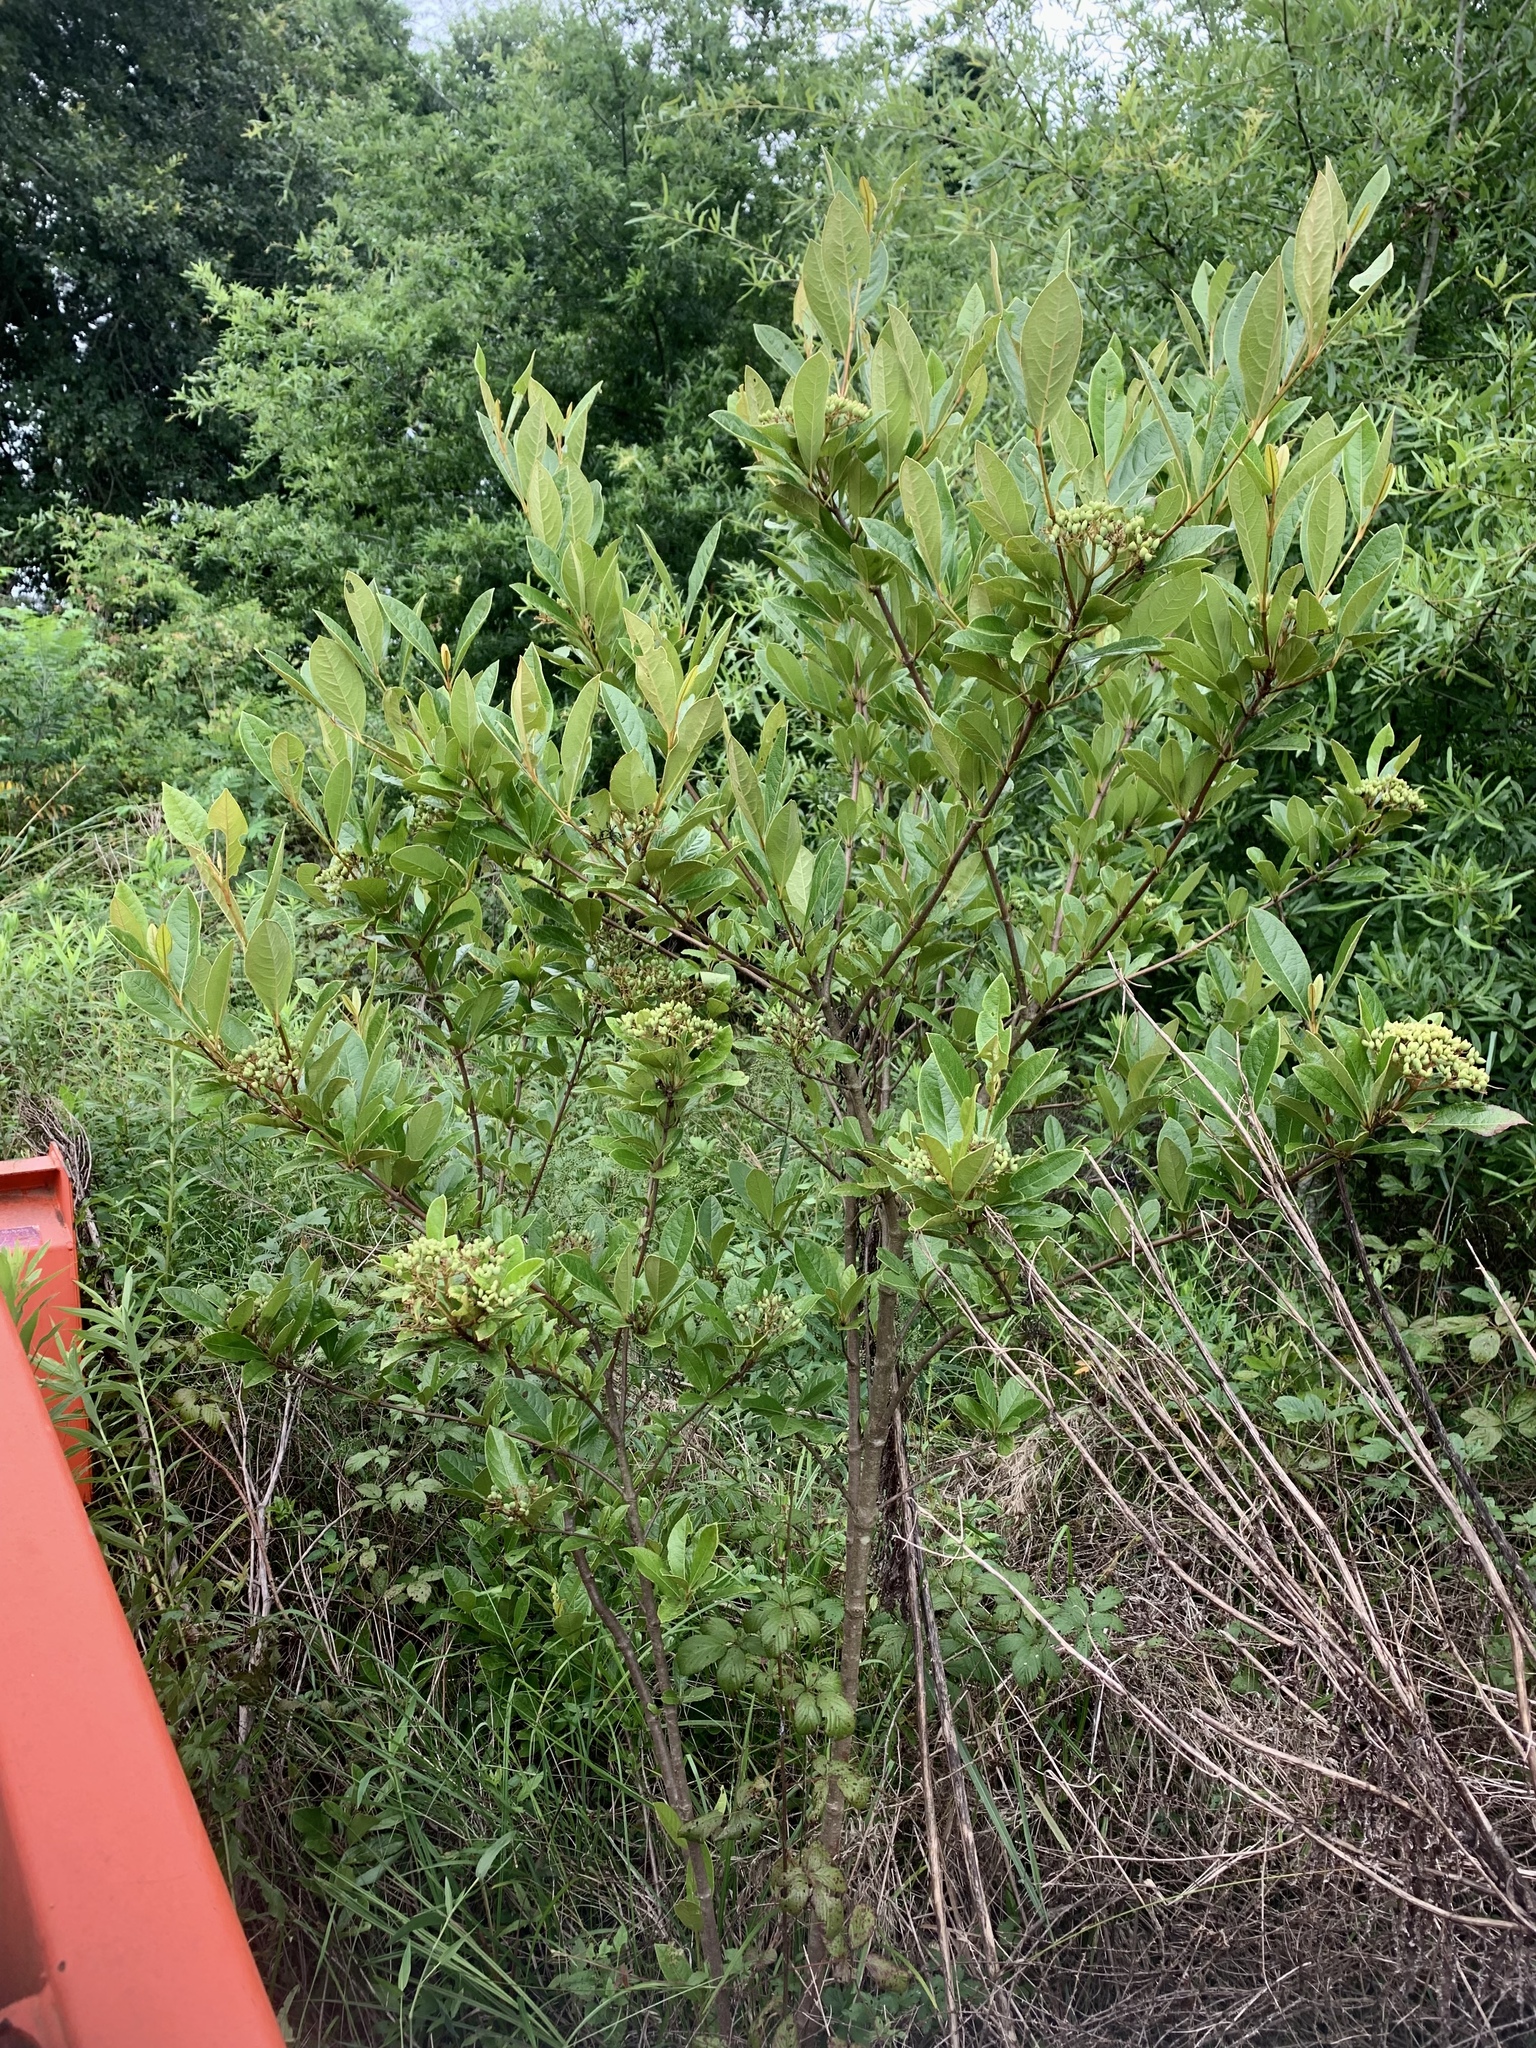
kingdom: Plantae
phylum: Tracheophyta
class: Magnoliopsida
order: Dipsacales
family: Viburnaceae
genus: Viburnum
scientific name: Viburnum nudum
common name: Possum haw
